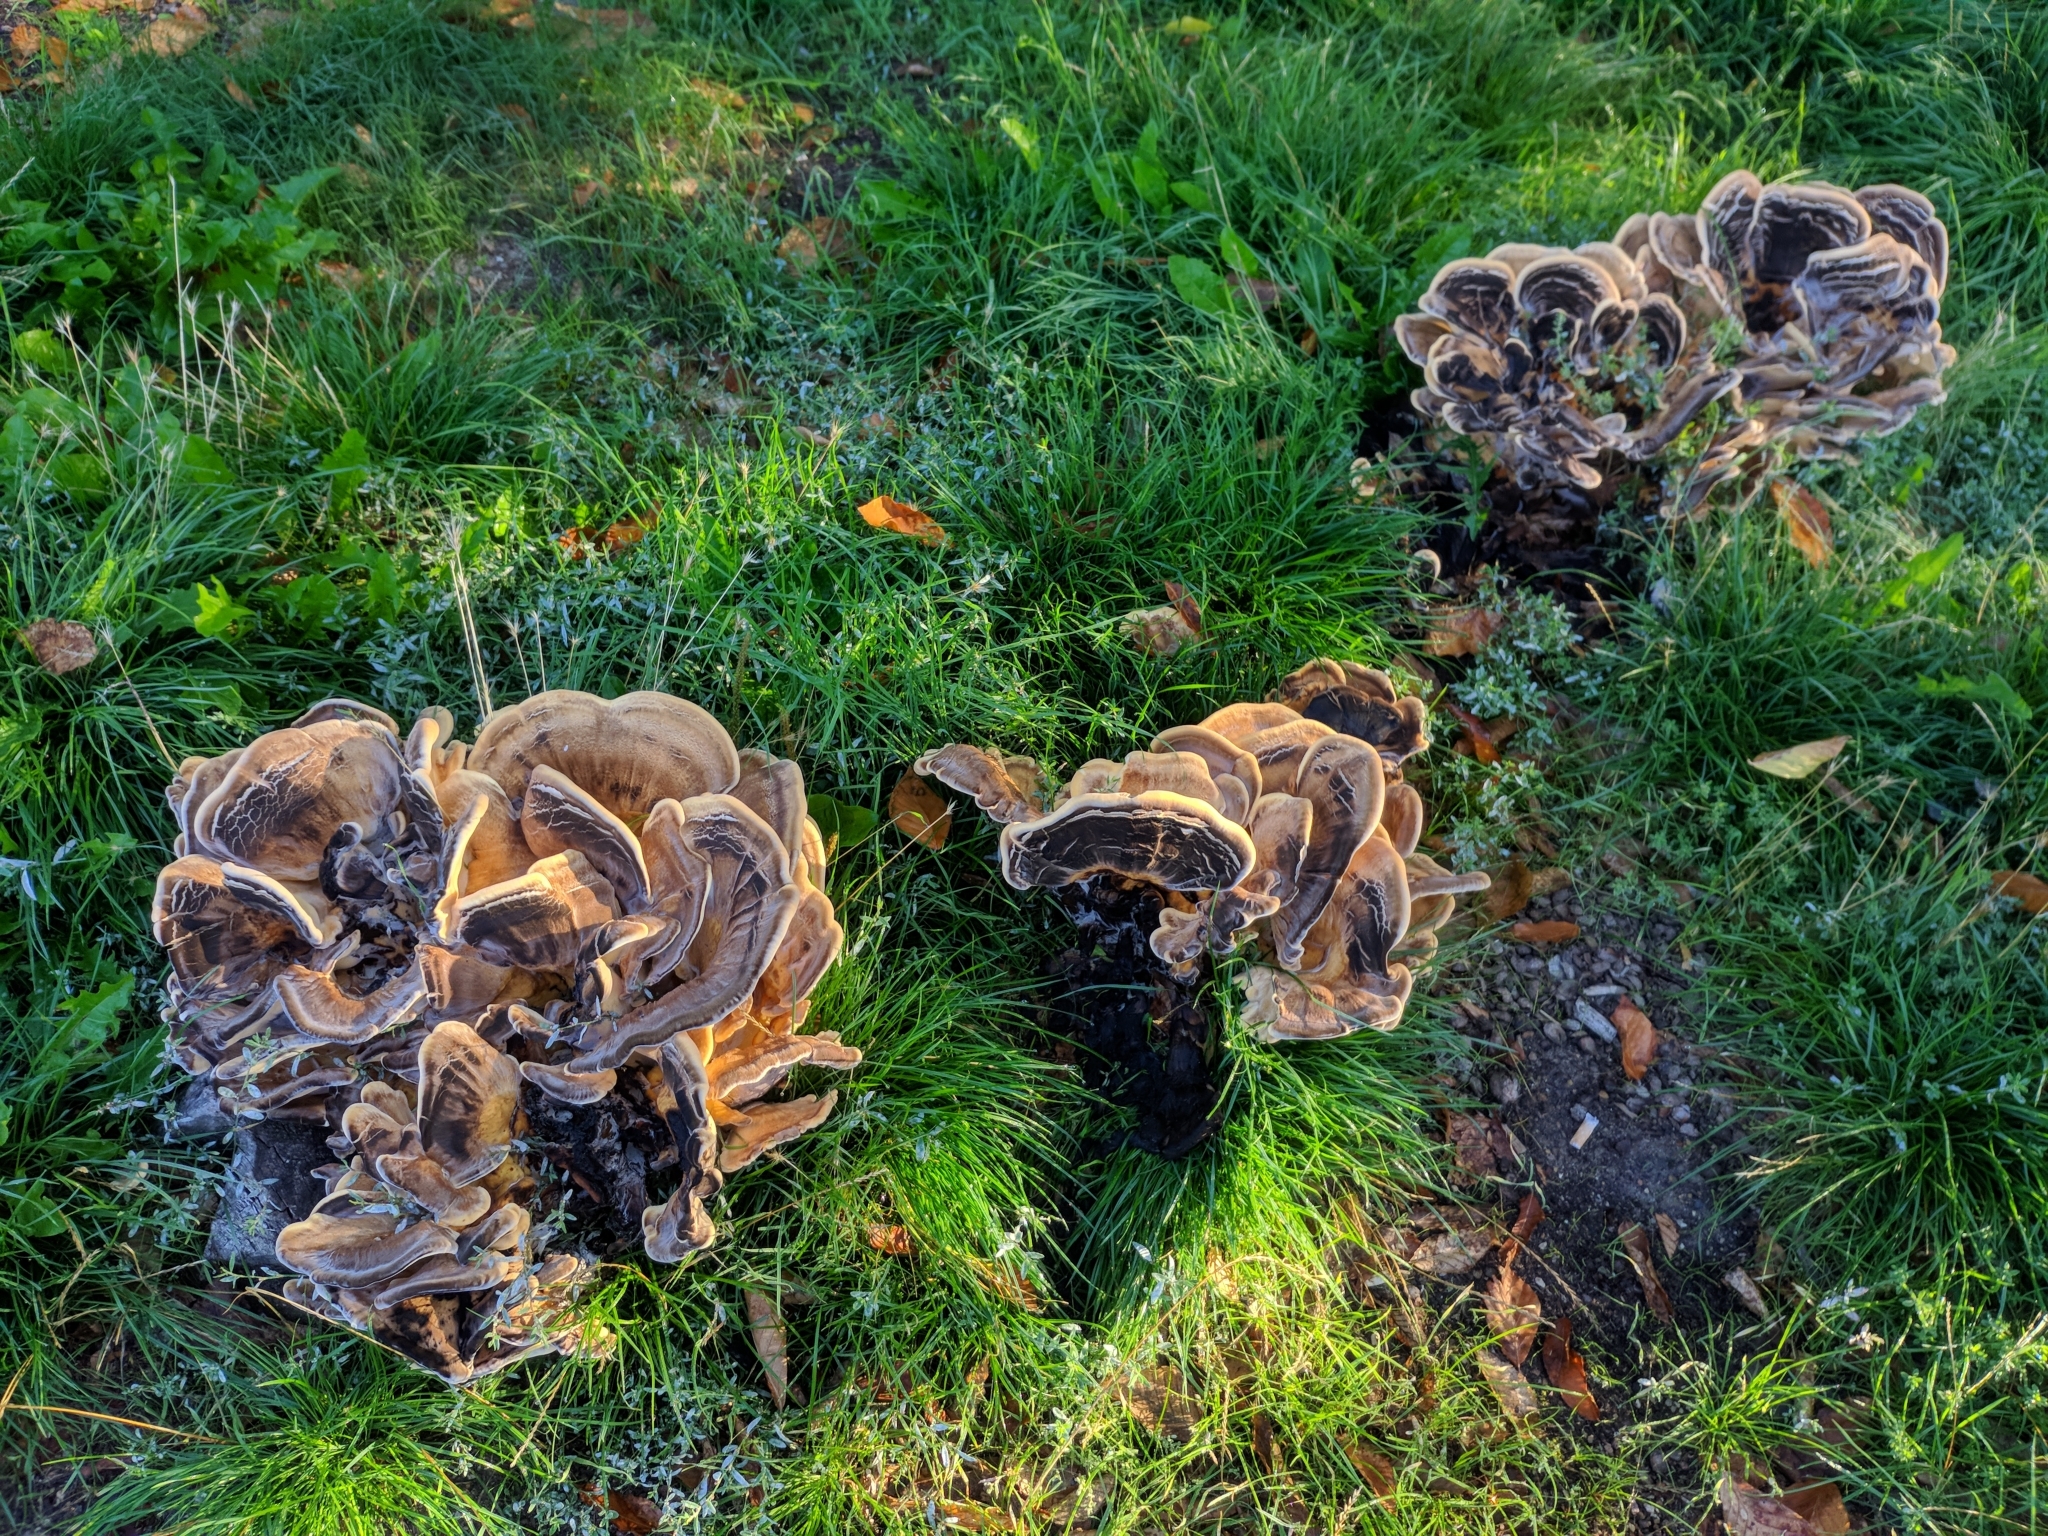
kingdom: Fungi
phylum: Basidiomycota
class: Agaricomycetes
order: Polyporales
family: Meripilaceae
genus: Meripilus
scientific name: Meripilus giganteus
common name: Giant polypore
